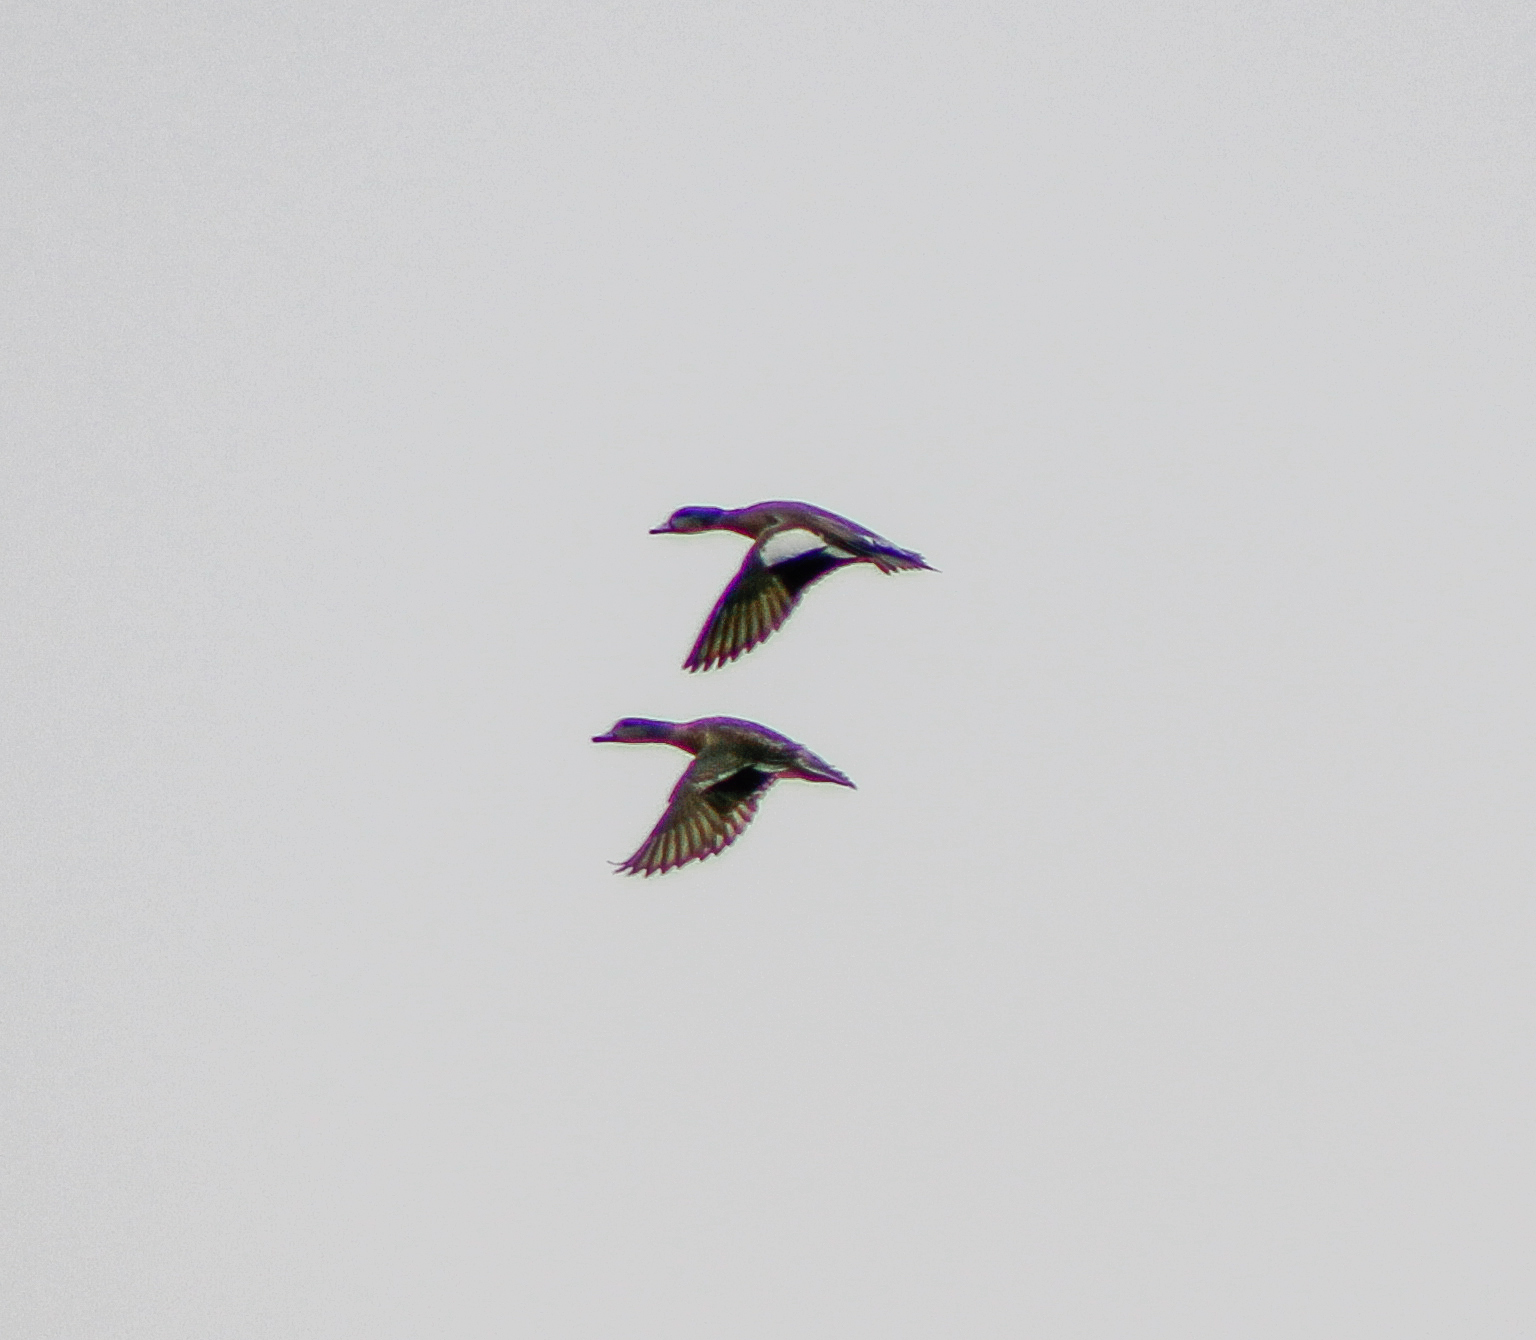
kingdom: Animalia
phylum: Chordata
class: Aves
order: Anseriformes
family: Anatidae
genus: Mareca
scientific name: Mareca americana
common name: American wigeon
